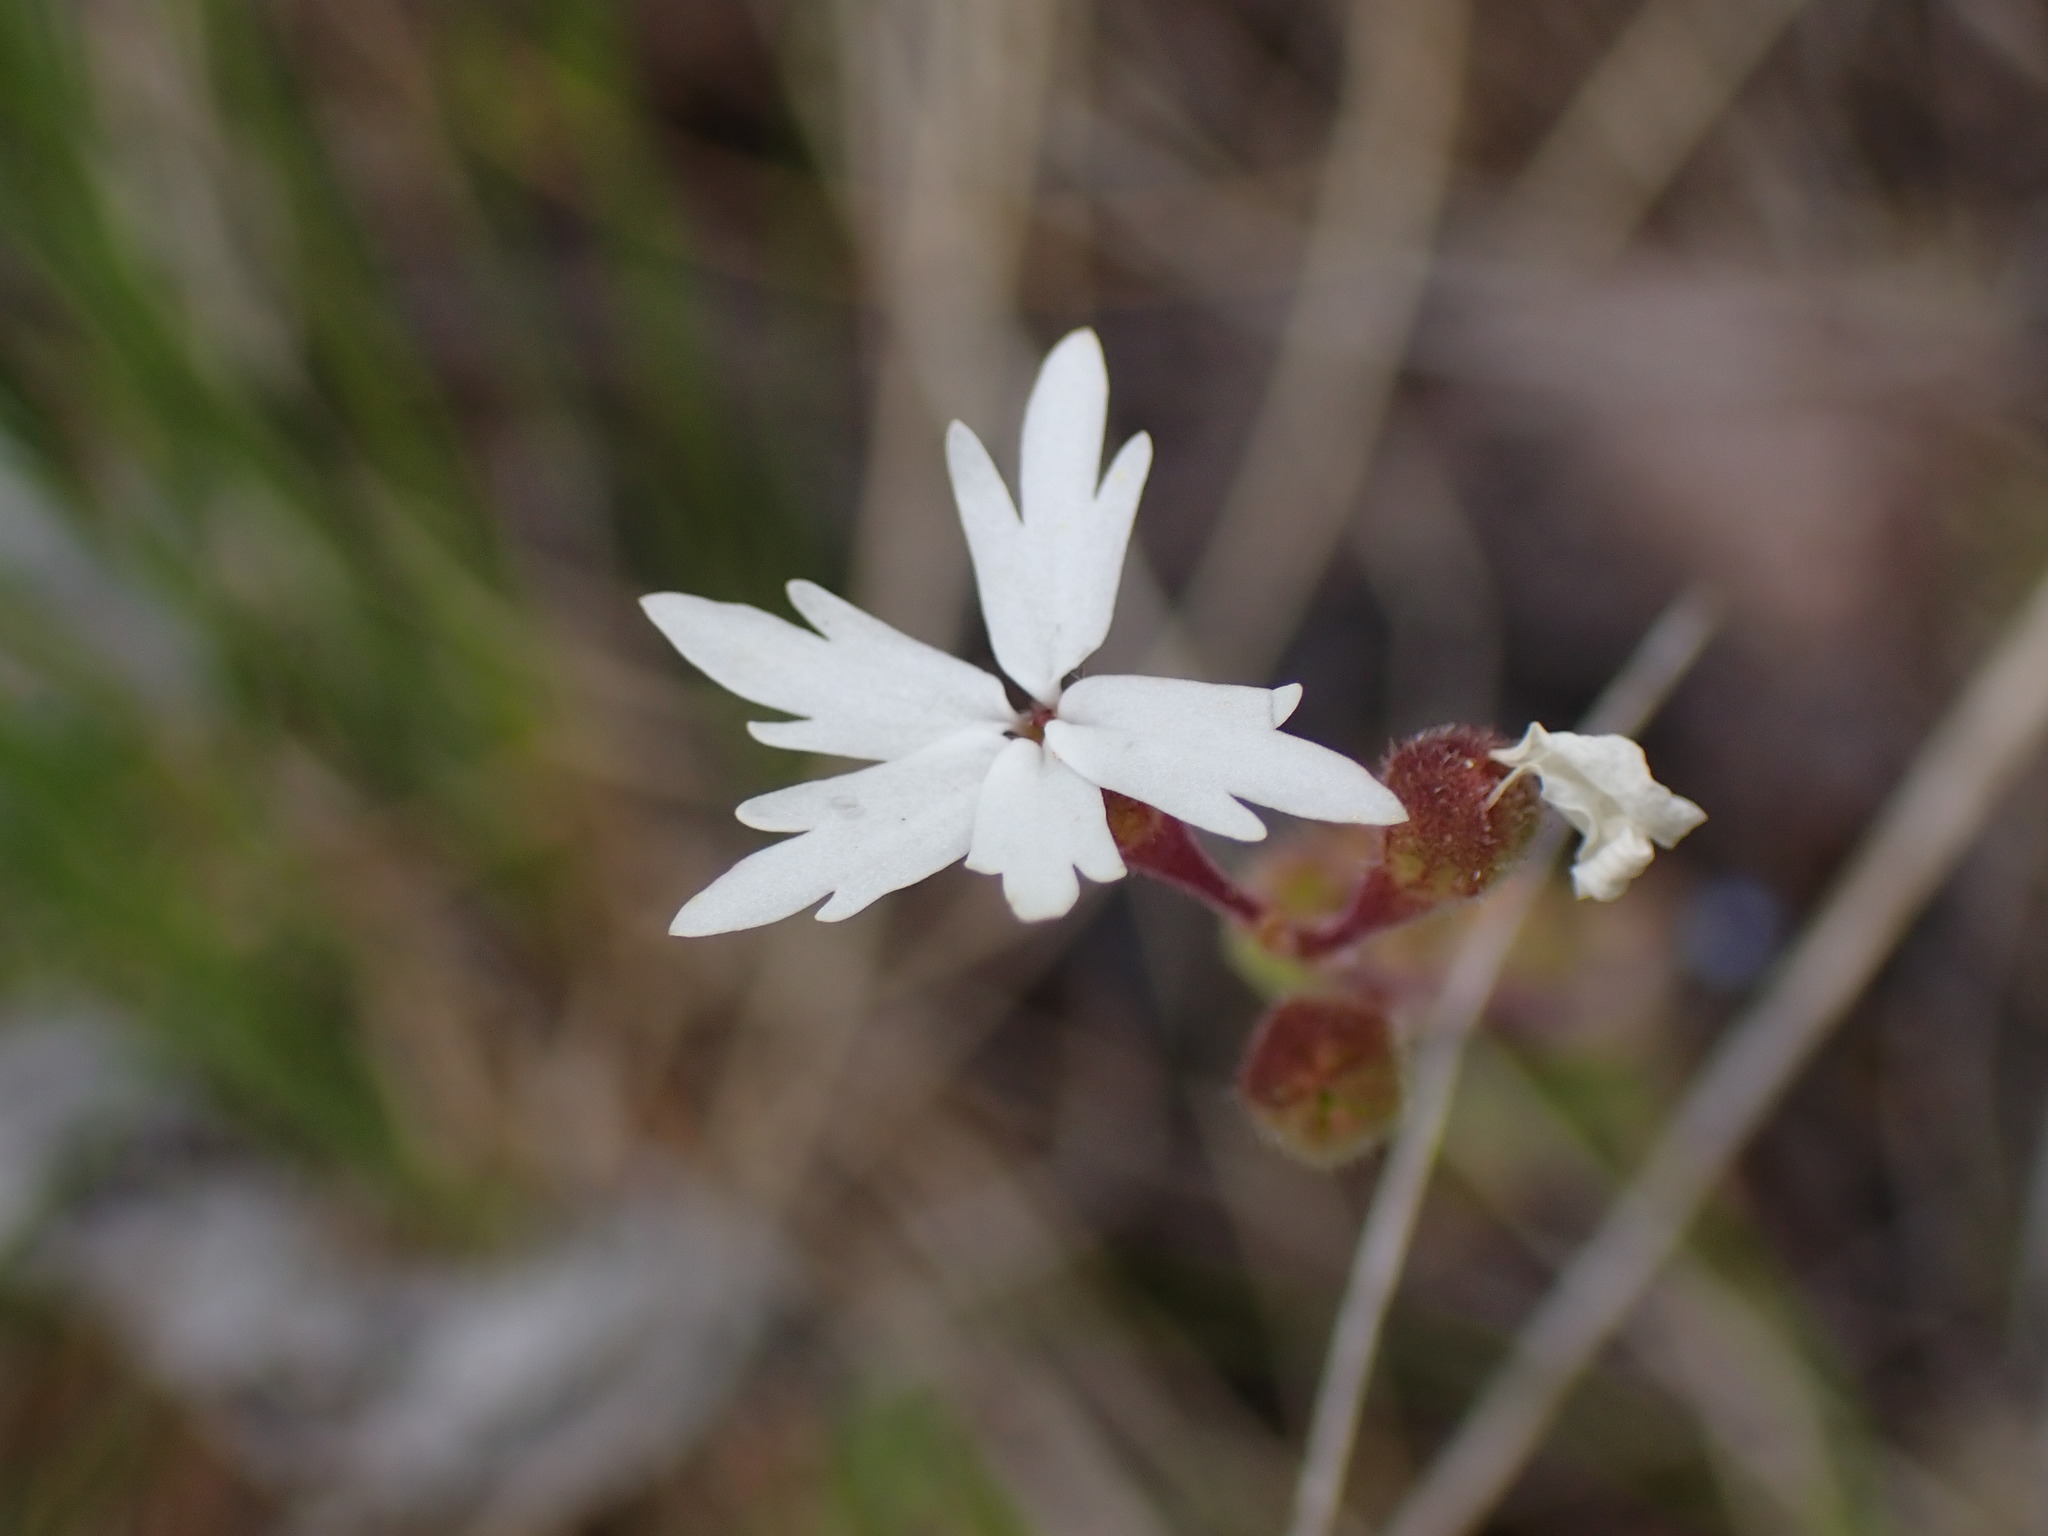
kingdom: Plantae
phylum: Tracheophyta
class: Magnoliopsida
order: Saxifragales
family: Saxifragaceae
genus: Lithophragma
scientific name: Lithophragma parviflorum
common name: Small-flowered fringe-cup
